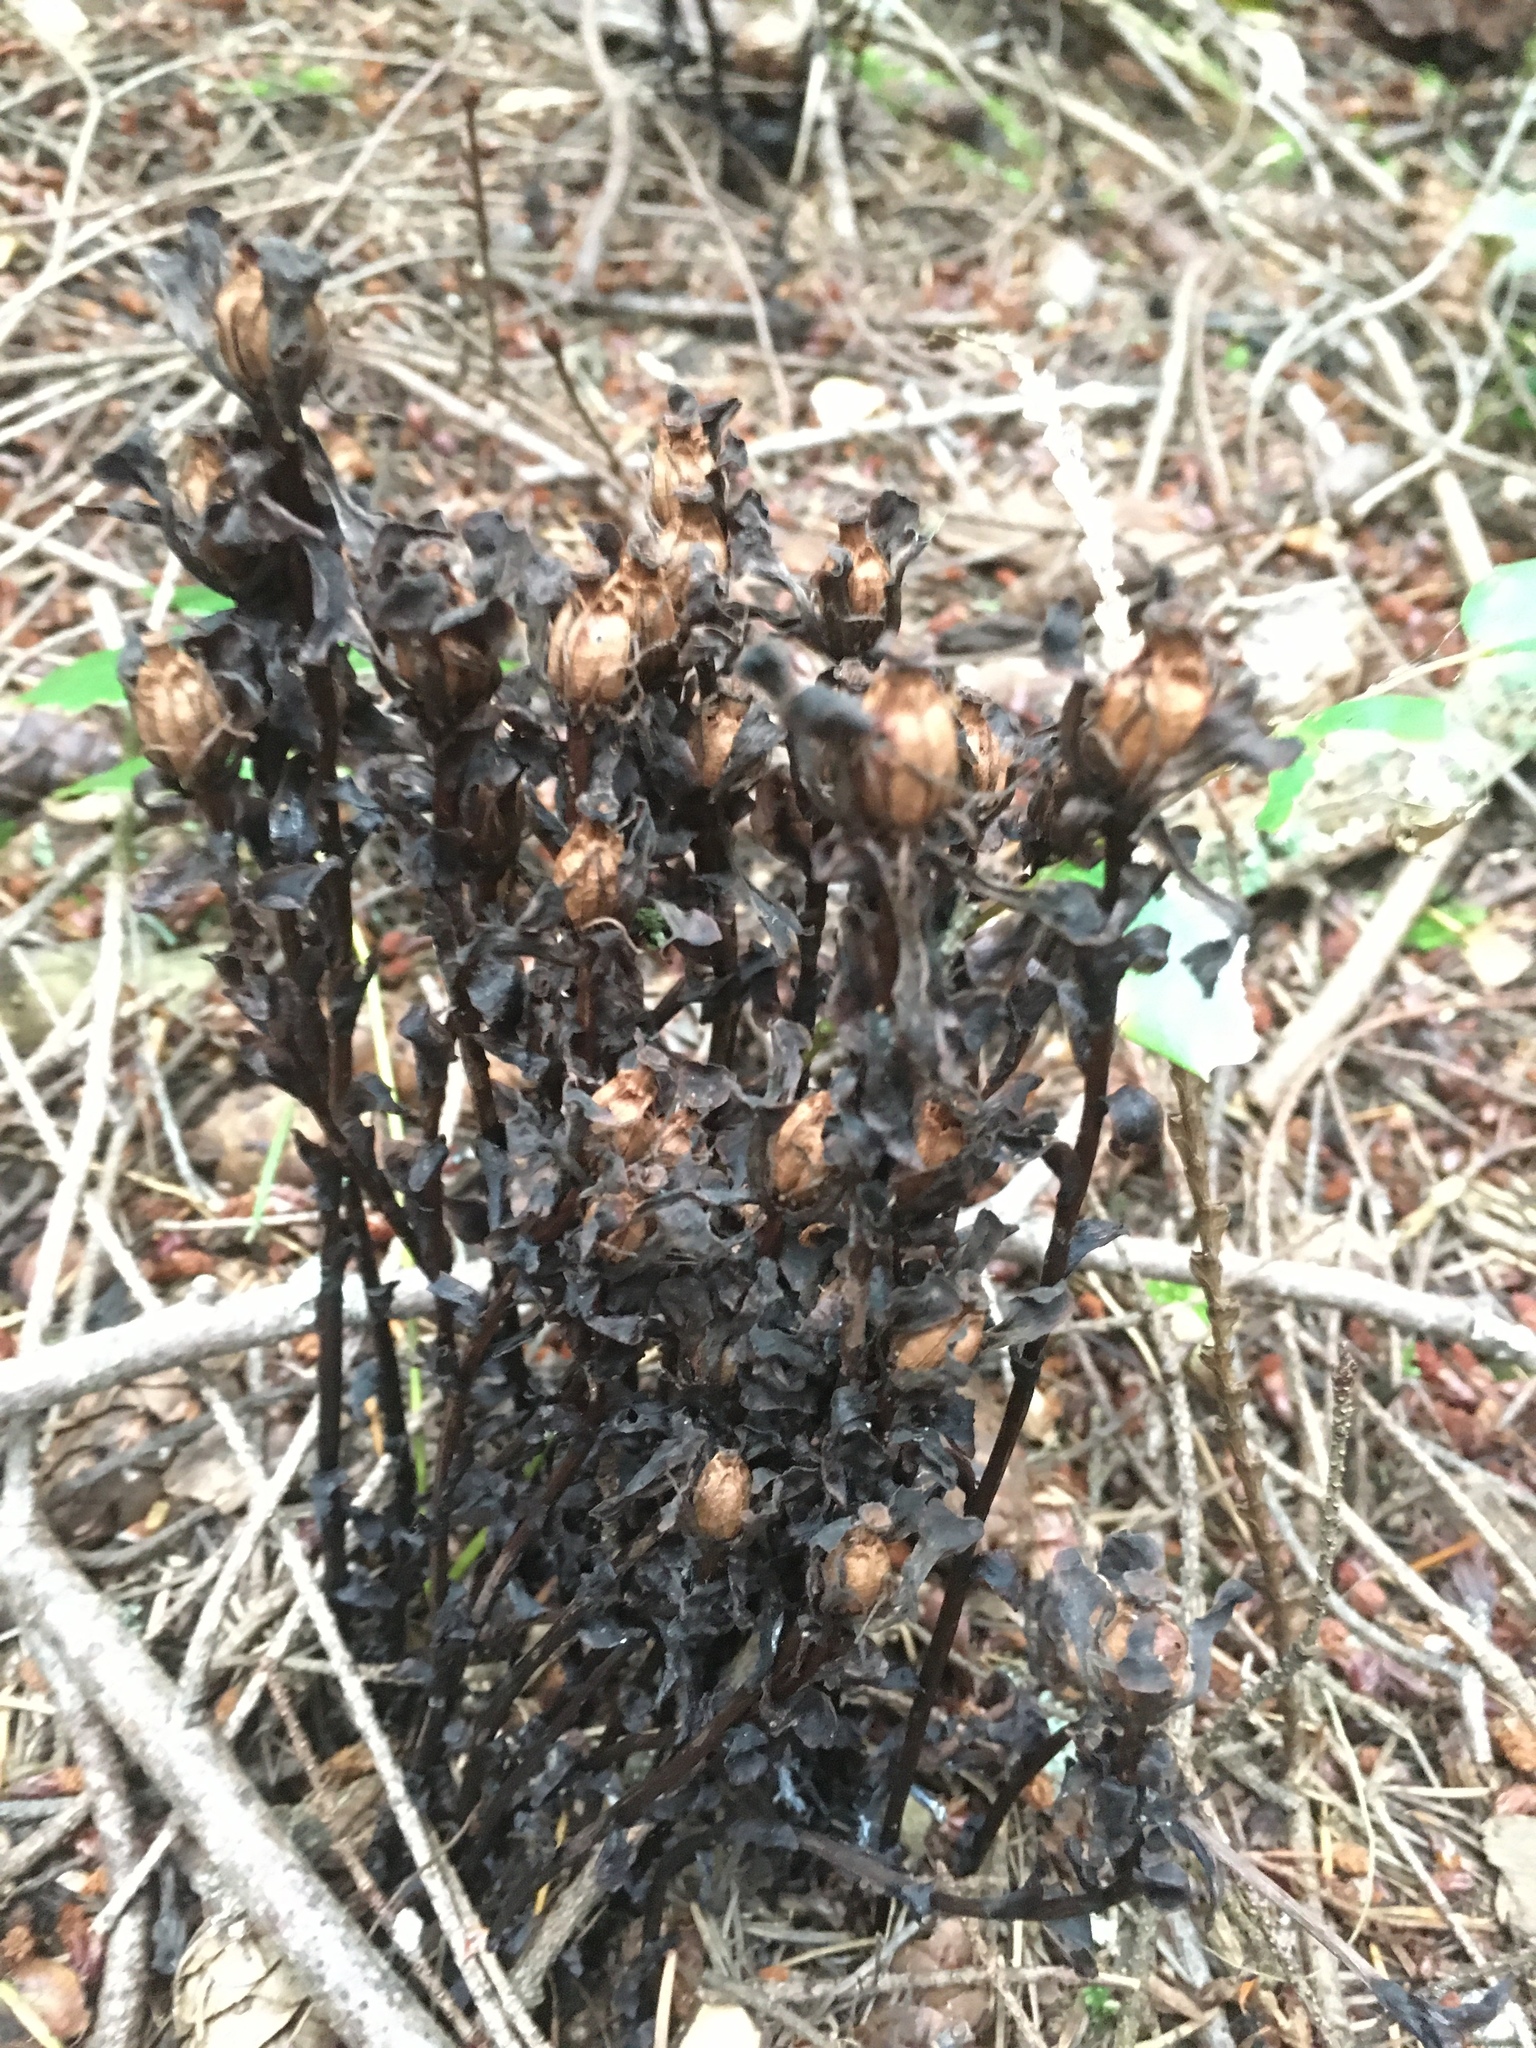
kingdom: Plantae
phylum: Tracheophyta
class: Magnoliopsida
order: Ericales
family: Ericaceae
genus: Monotropa
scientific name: Monotropa uniflora
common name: Convulsion root
